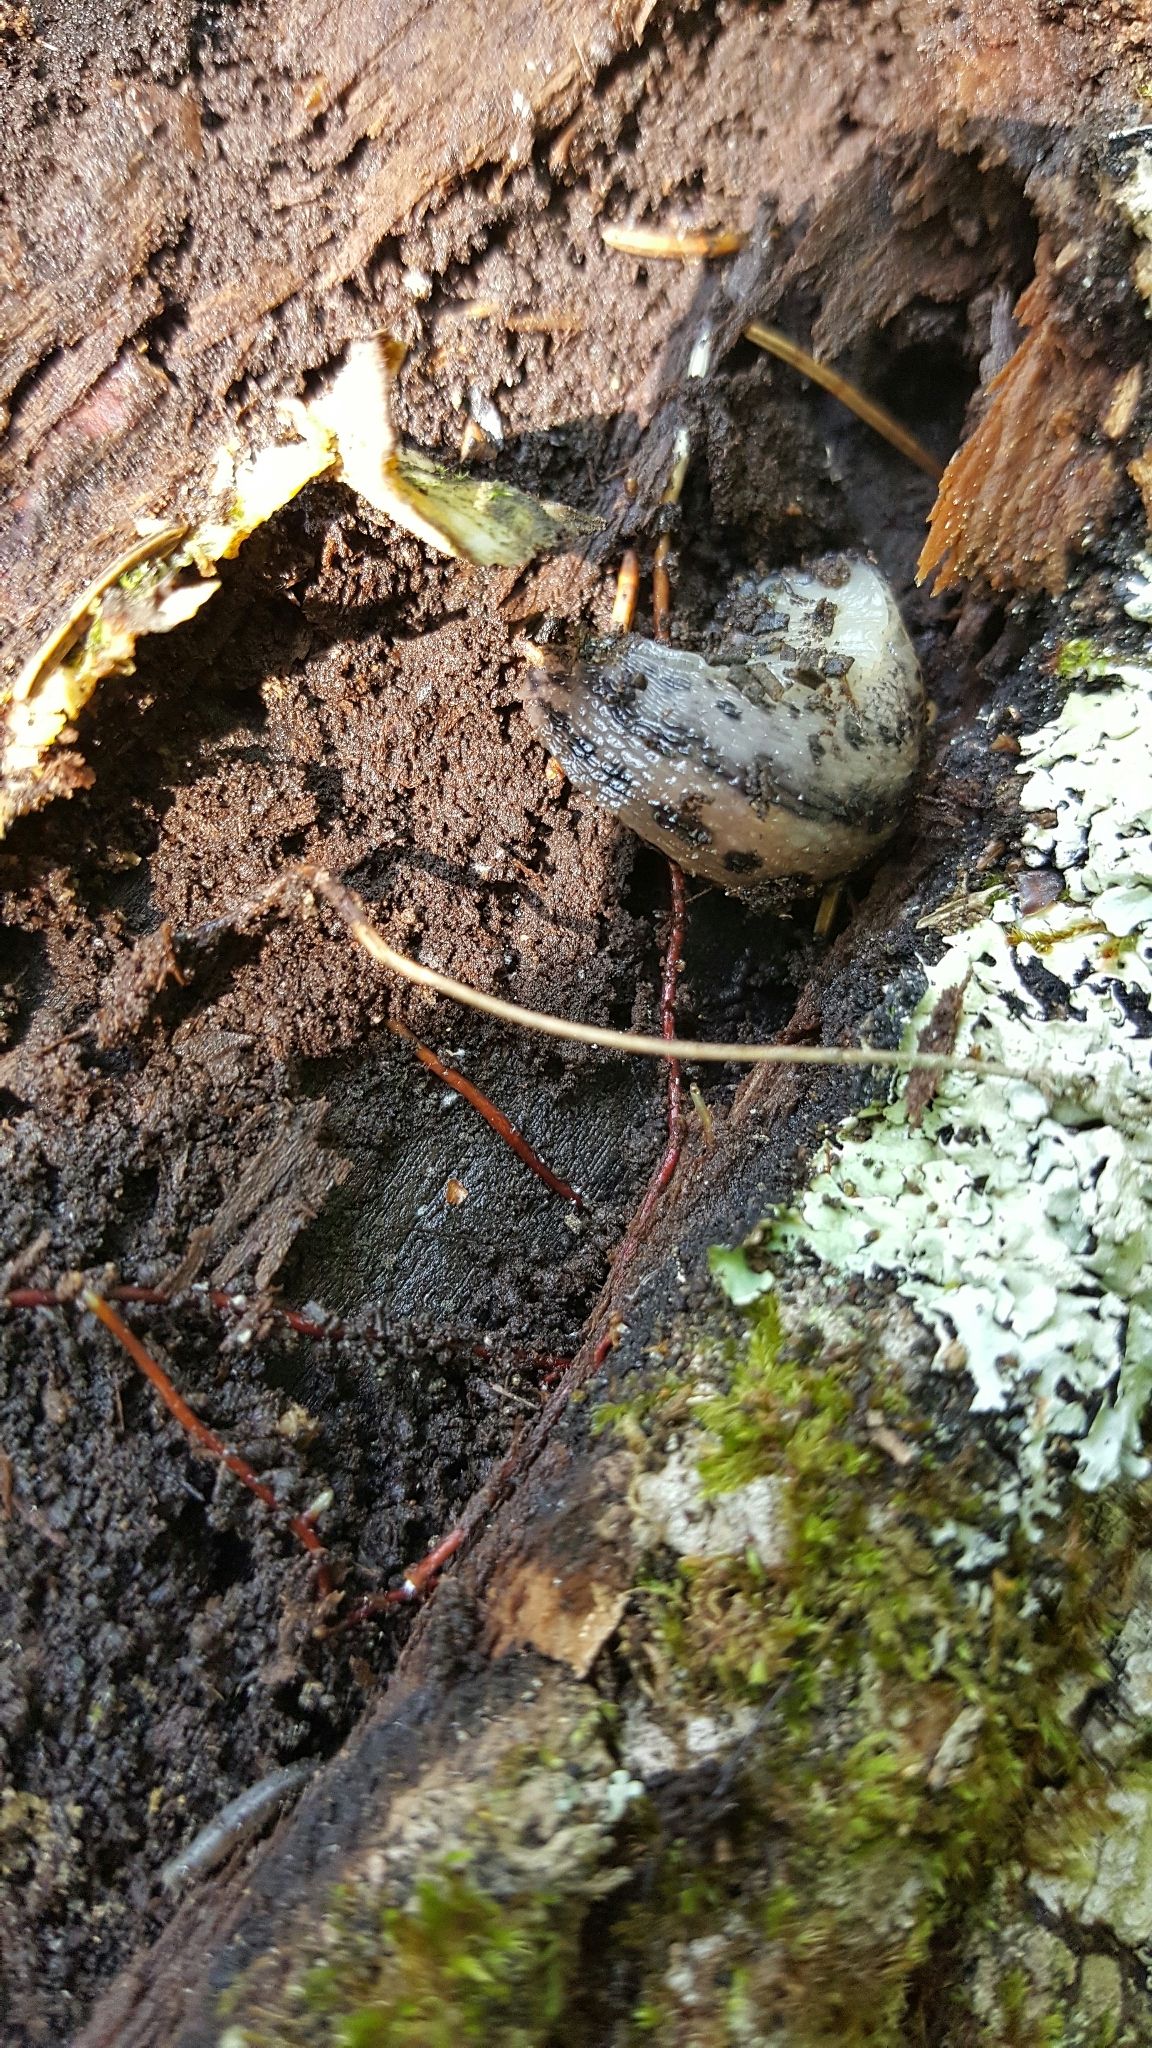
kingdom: Animalia
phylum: Mollusca
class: Gastropoda
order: Stylommatophora
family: Limacidae
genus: Limax
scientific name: Limax maximus
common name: Great grey slug
